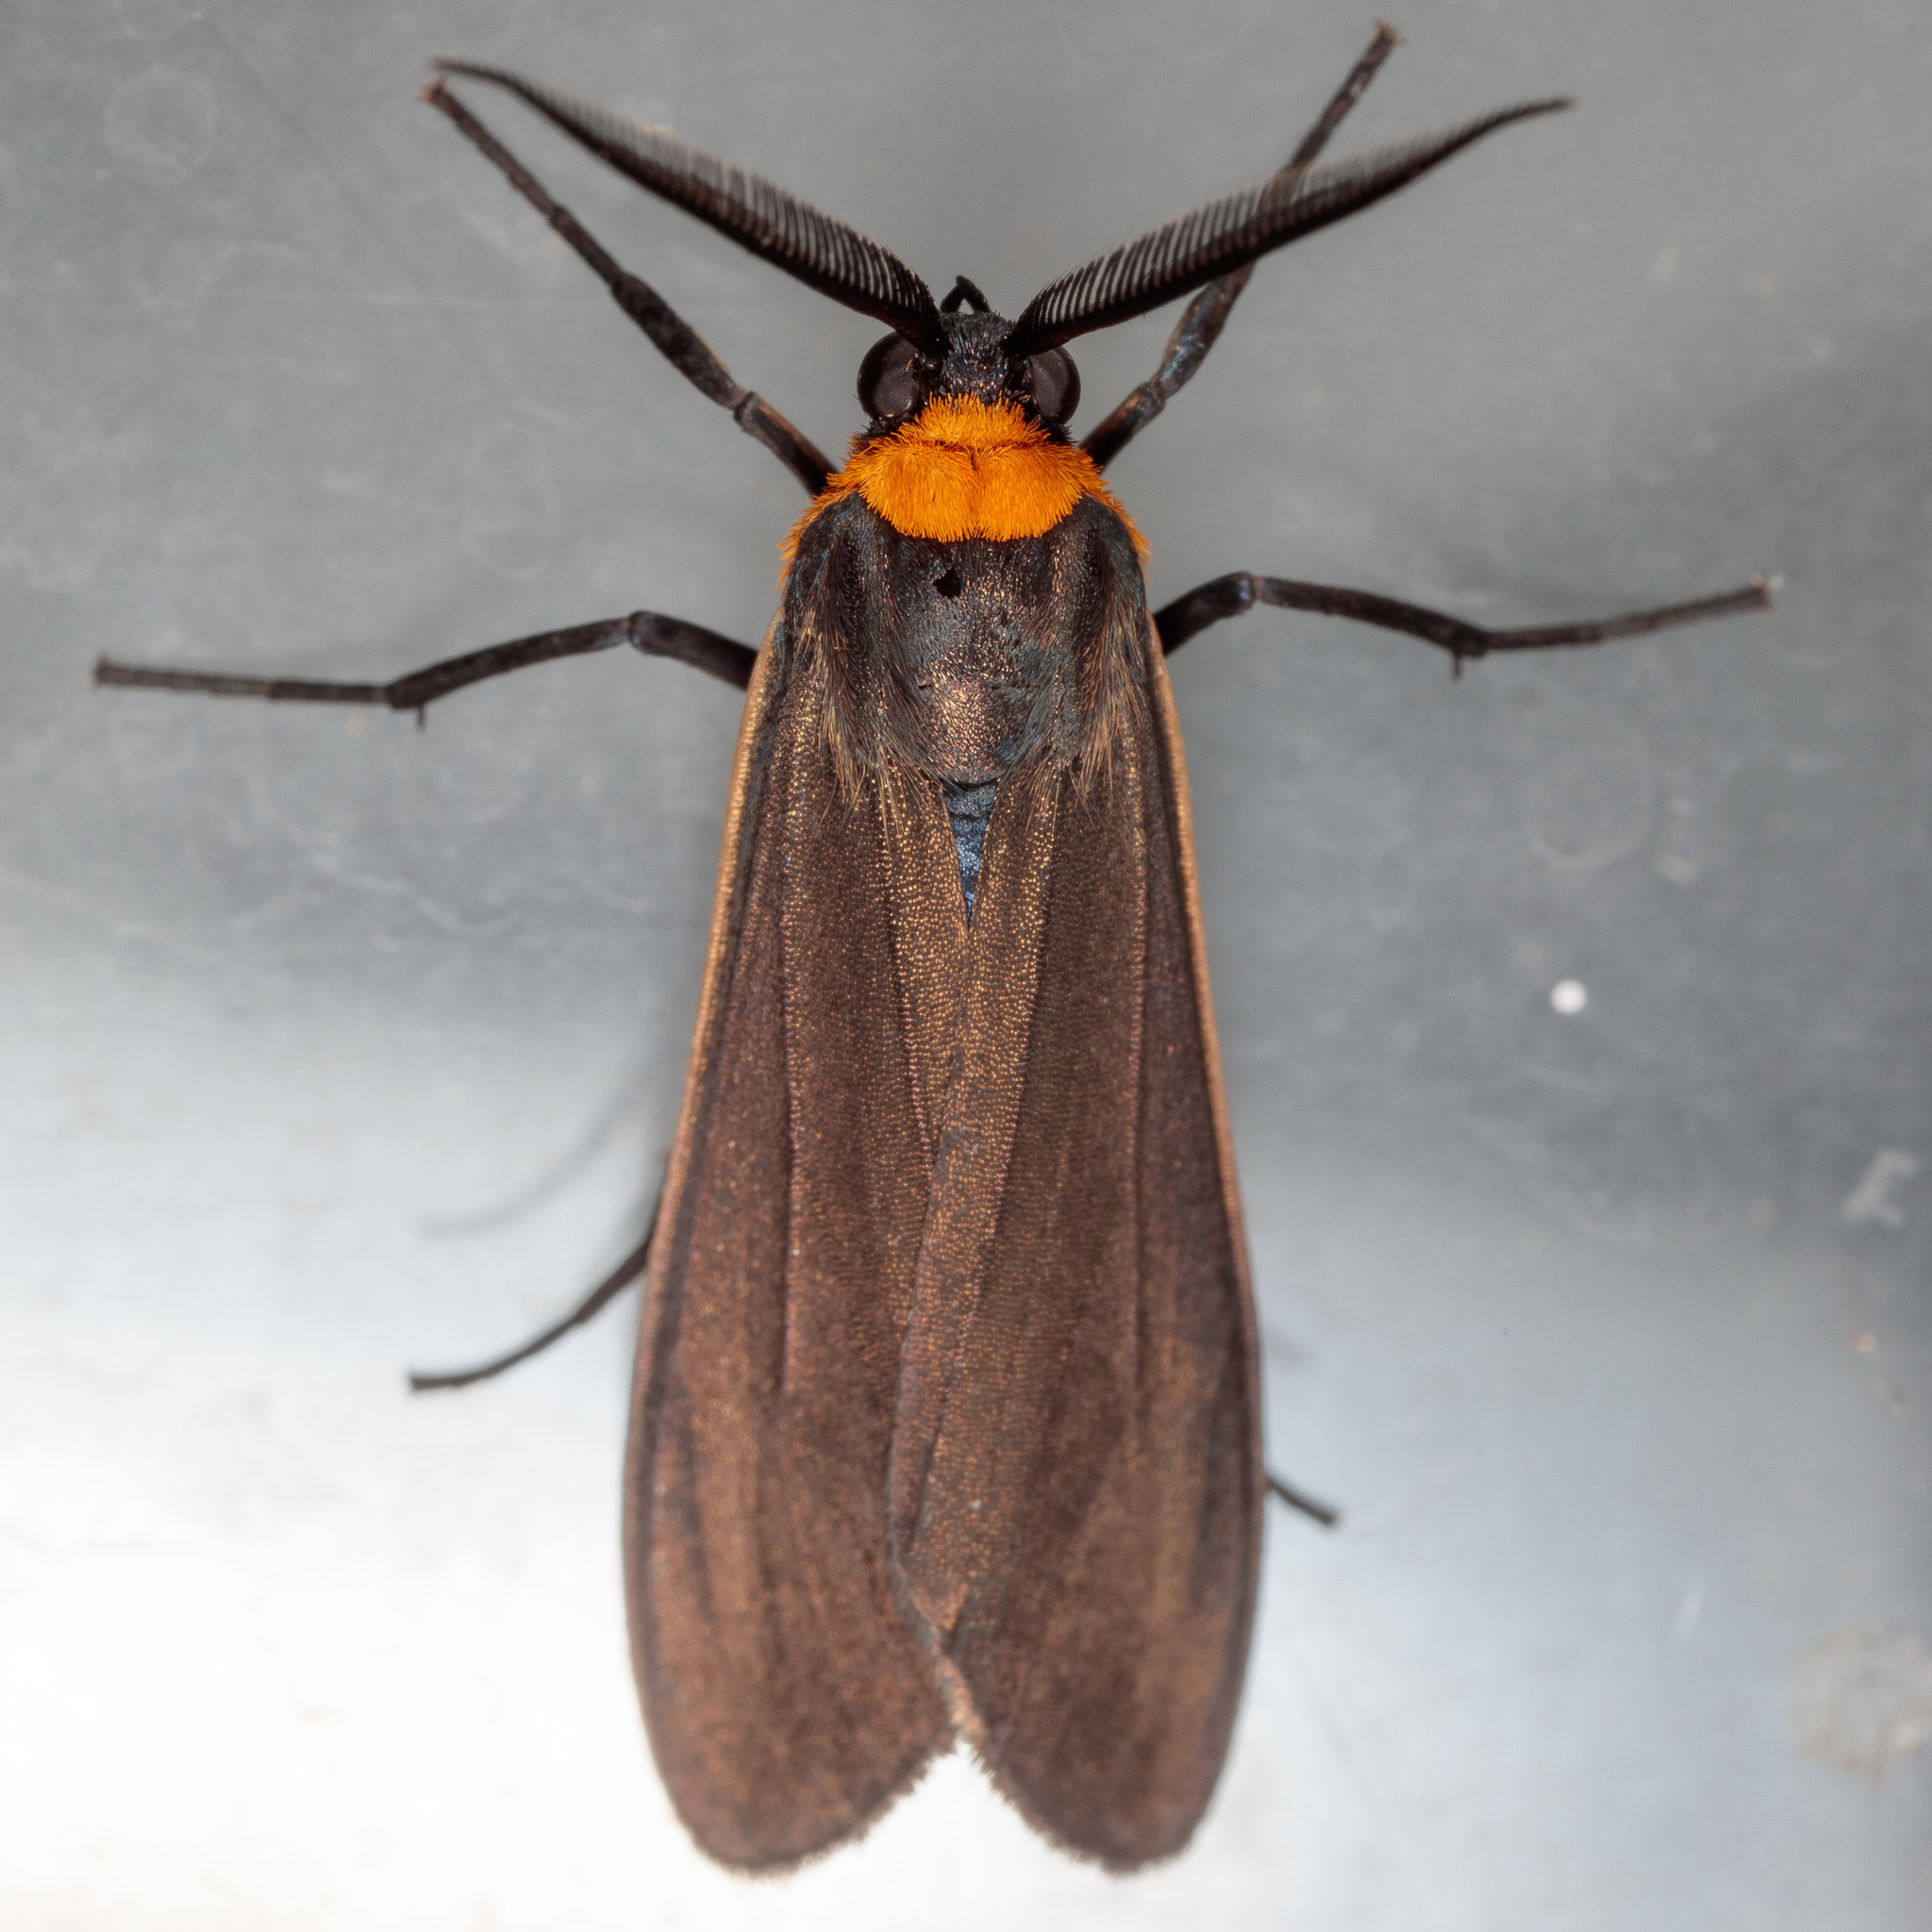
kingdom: Animalia
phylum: Arthropoda
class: Insecta
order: Lepidoptera
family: Erebidae
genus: Cisseps
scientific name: Cisseps fulvicollis
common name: Yellow-collared scape moth
